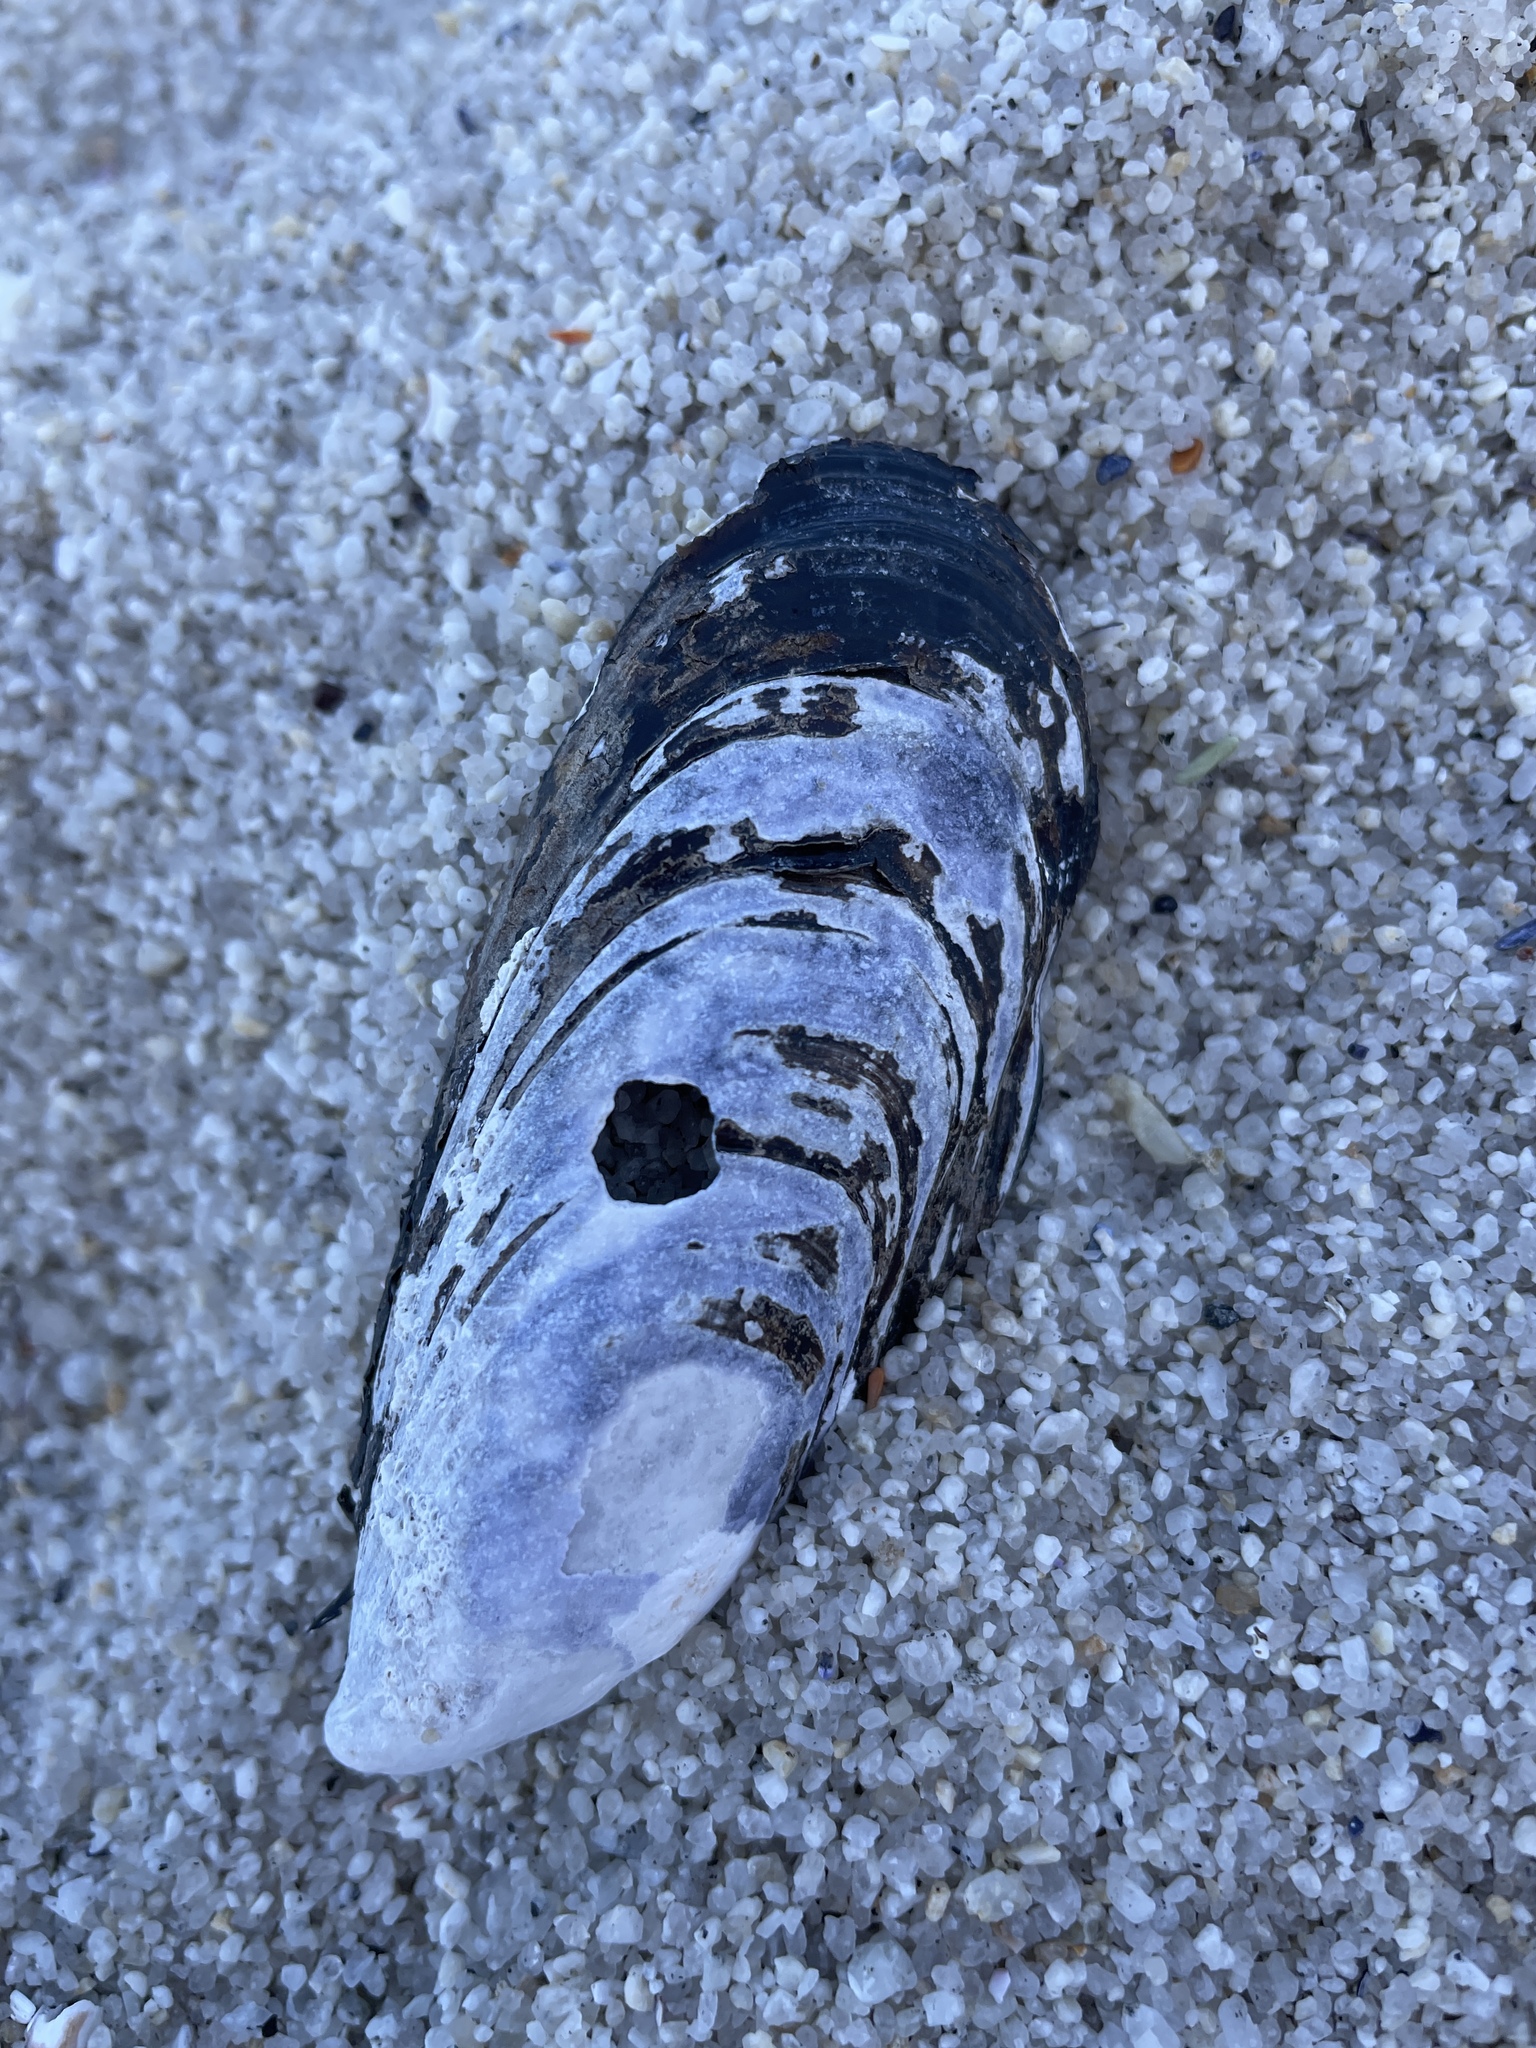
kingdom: Animalia
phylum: Mollusca
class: Bivalvia
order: Mytilida
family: Mytilidae
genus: Mytilus
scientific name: Mytilus californianus
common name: California mussel
